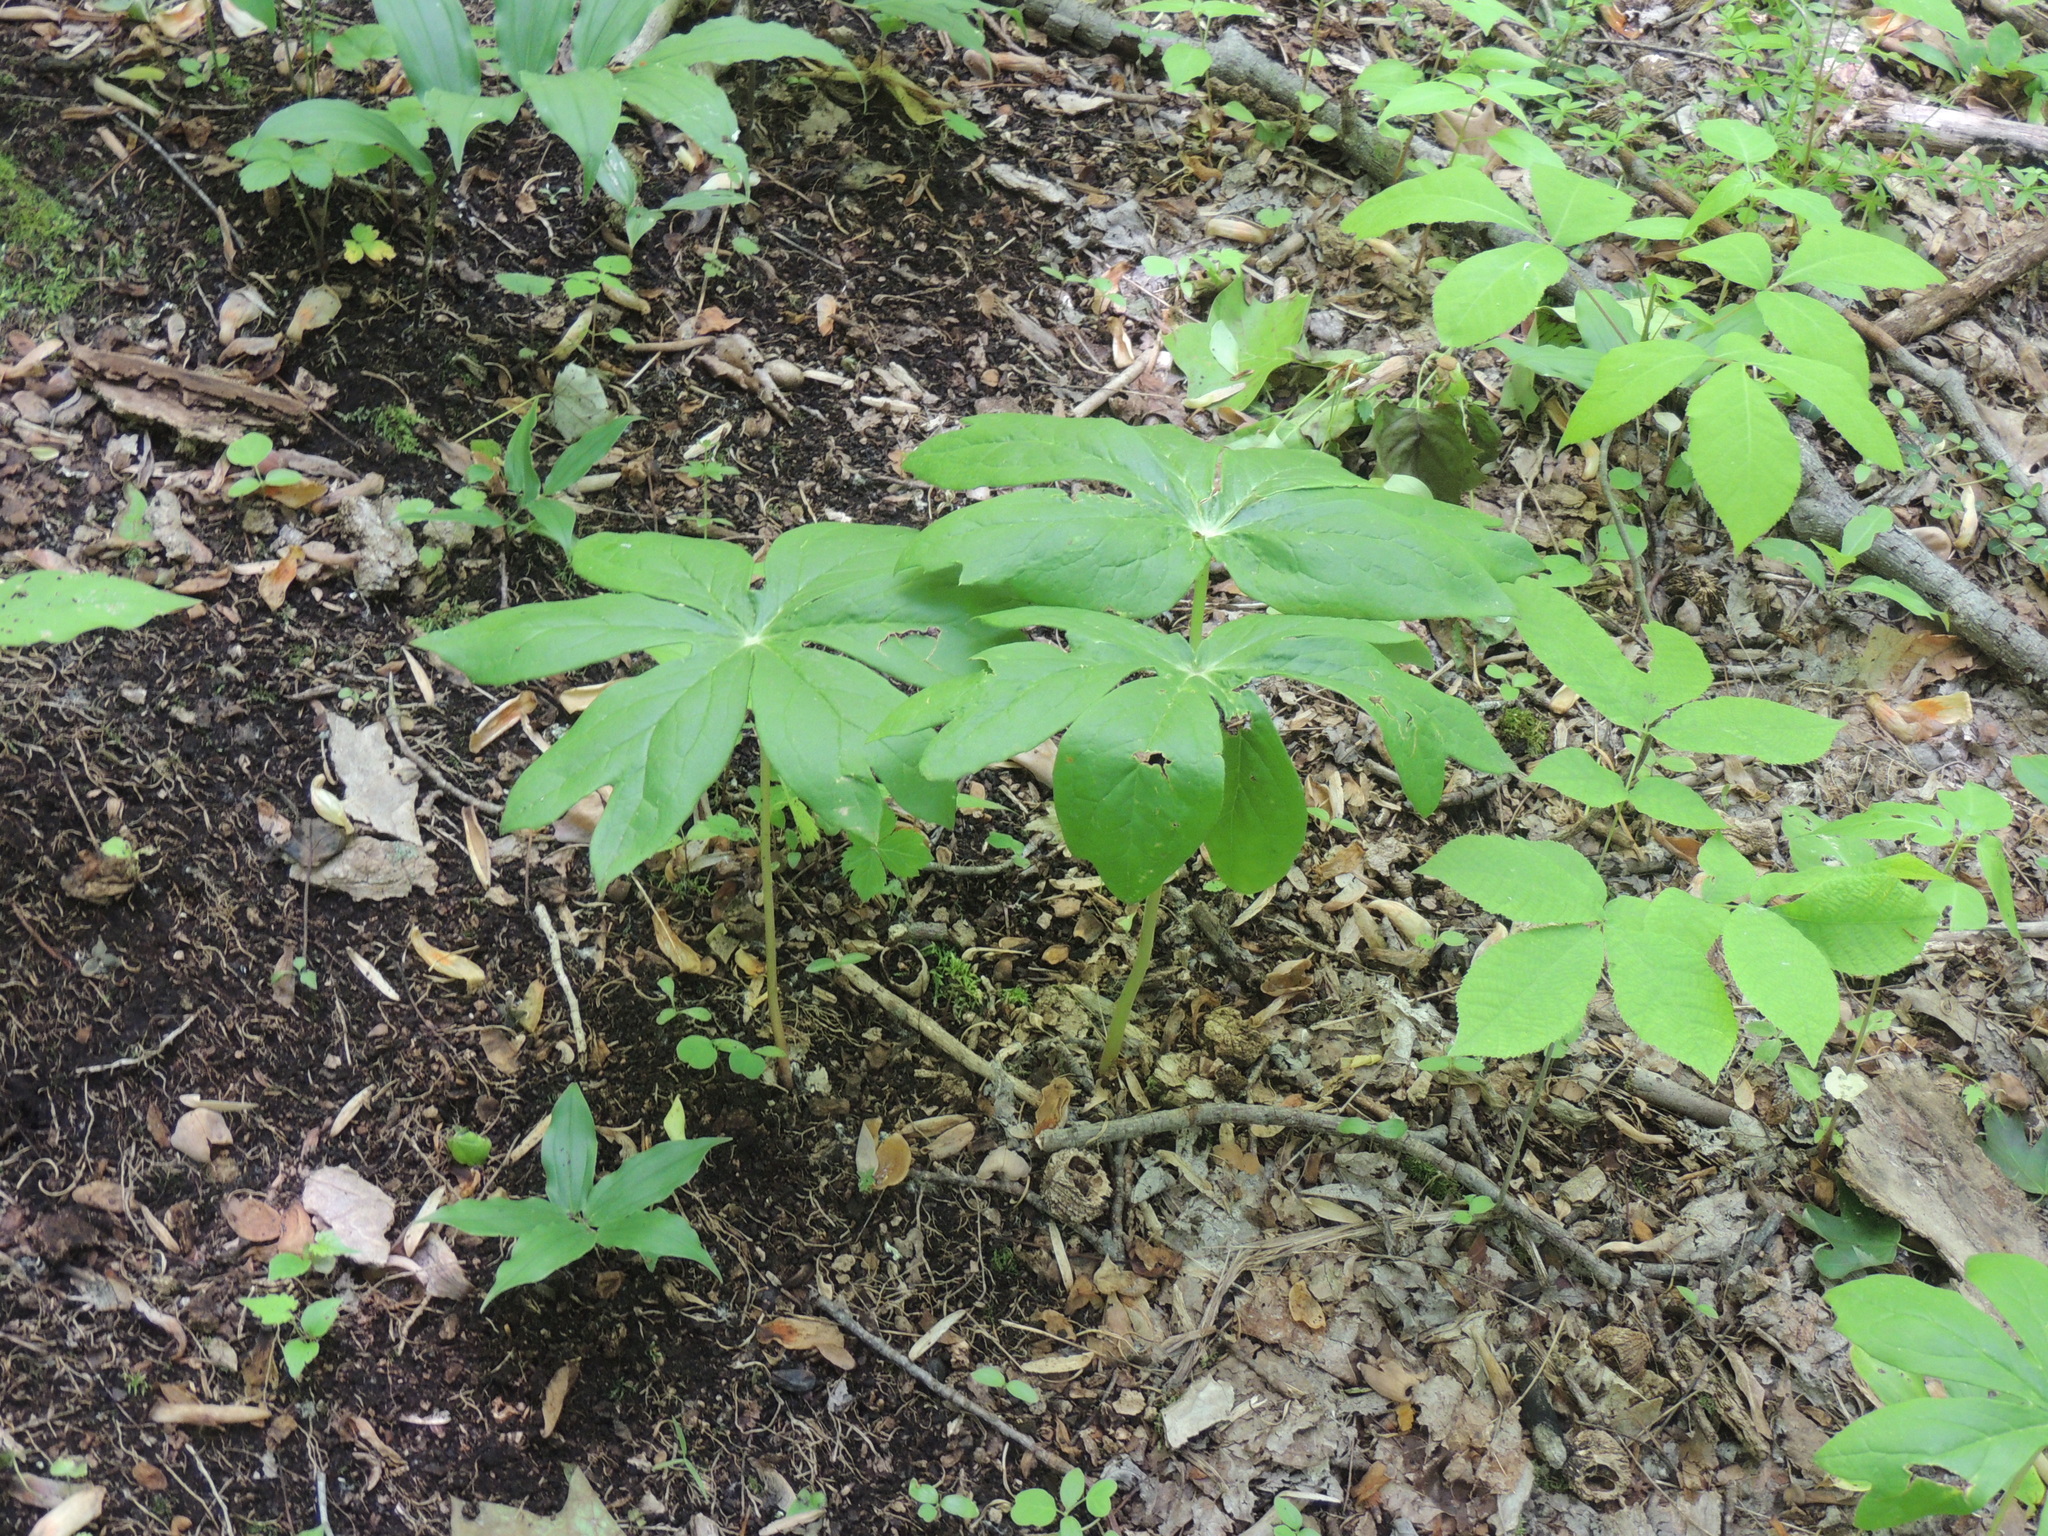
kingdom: Plantae
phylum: Tracheophyta
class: Magnoliopsida
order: Ranunculales
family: Berberidaceae
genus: Podophyllum
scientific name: Podophyllum peltatum
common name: Wild mandrake
